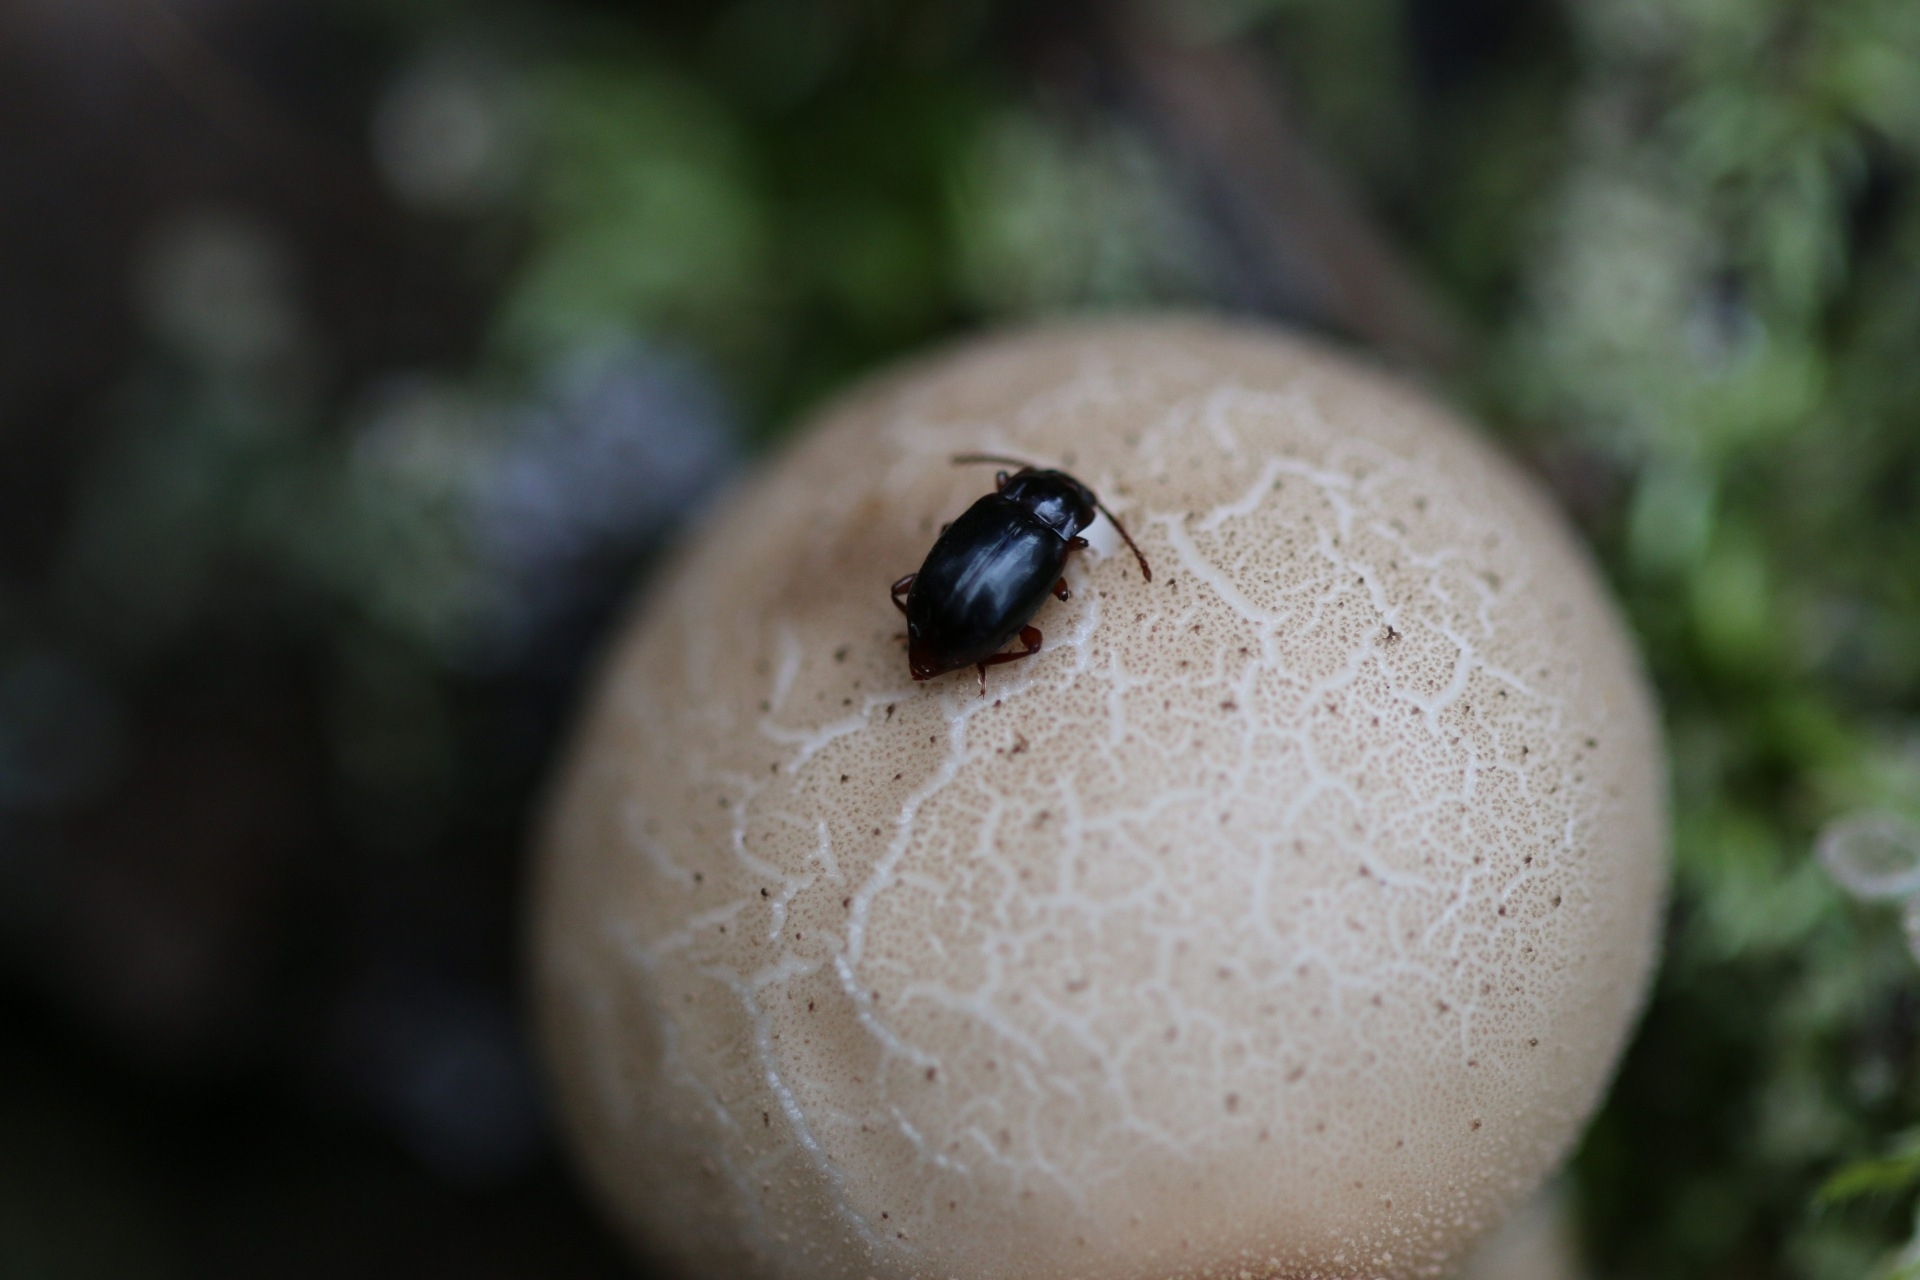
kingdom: Animalia
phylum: Arthropoda
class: Insecta
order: Coleoptera
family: Endomychidae
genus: Lycoperdina
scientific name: Lycoperdina ferruginea
